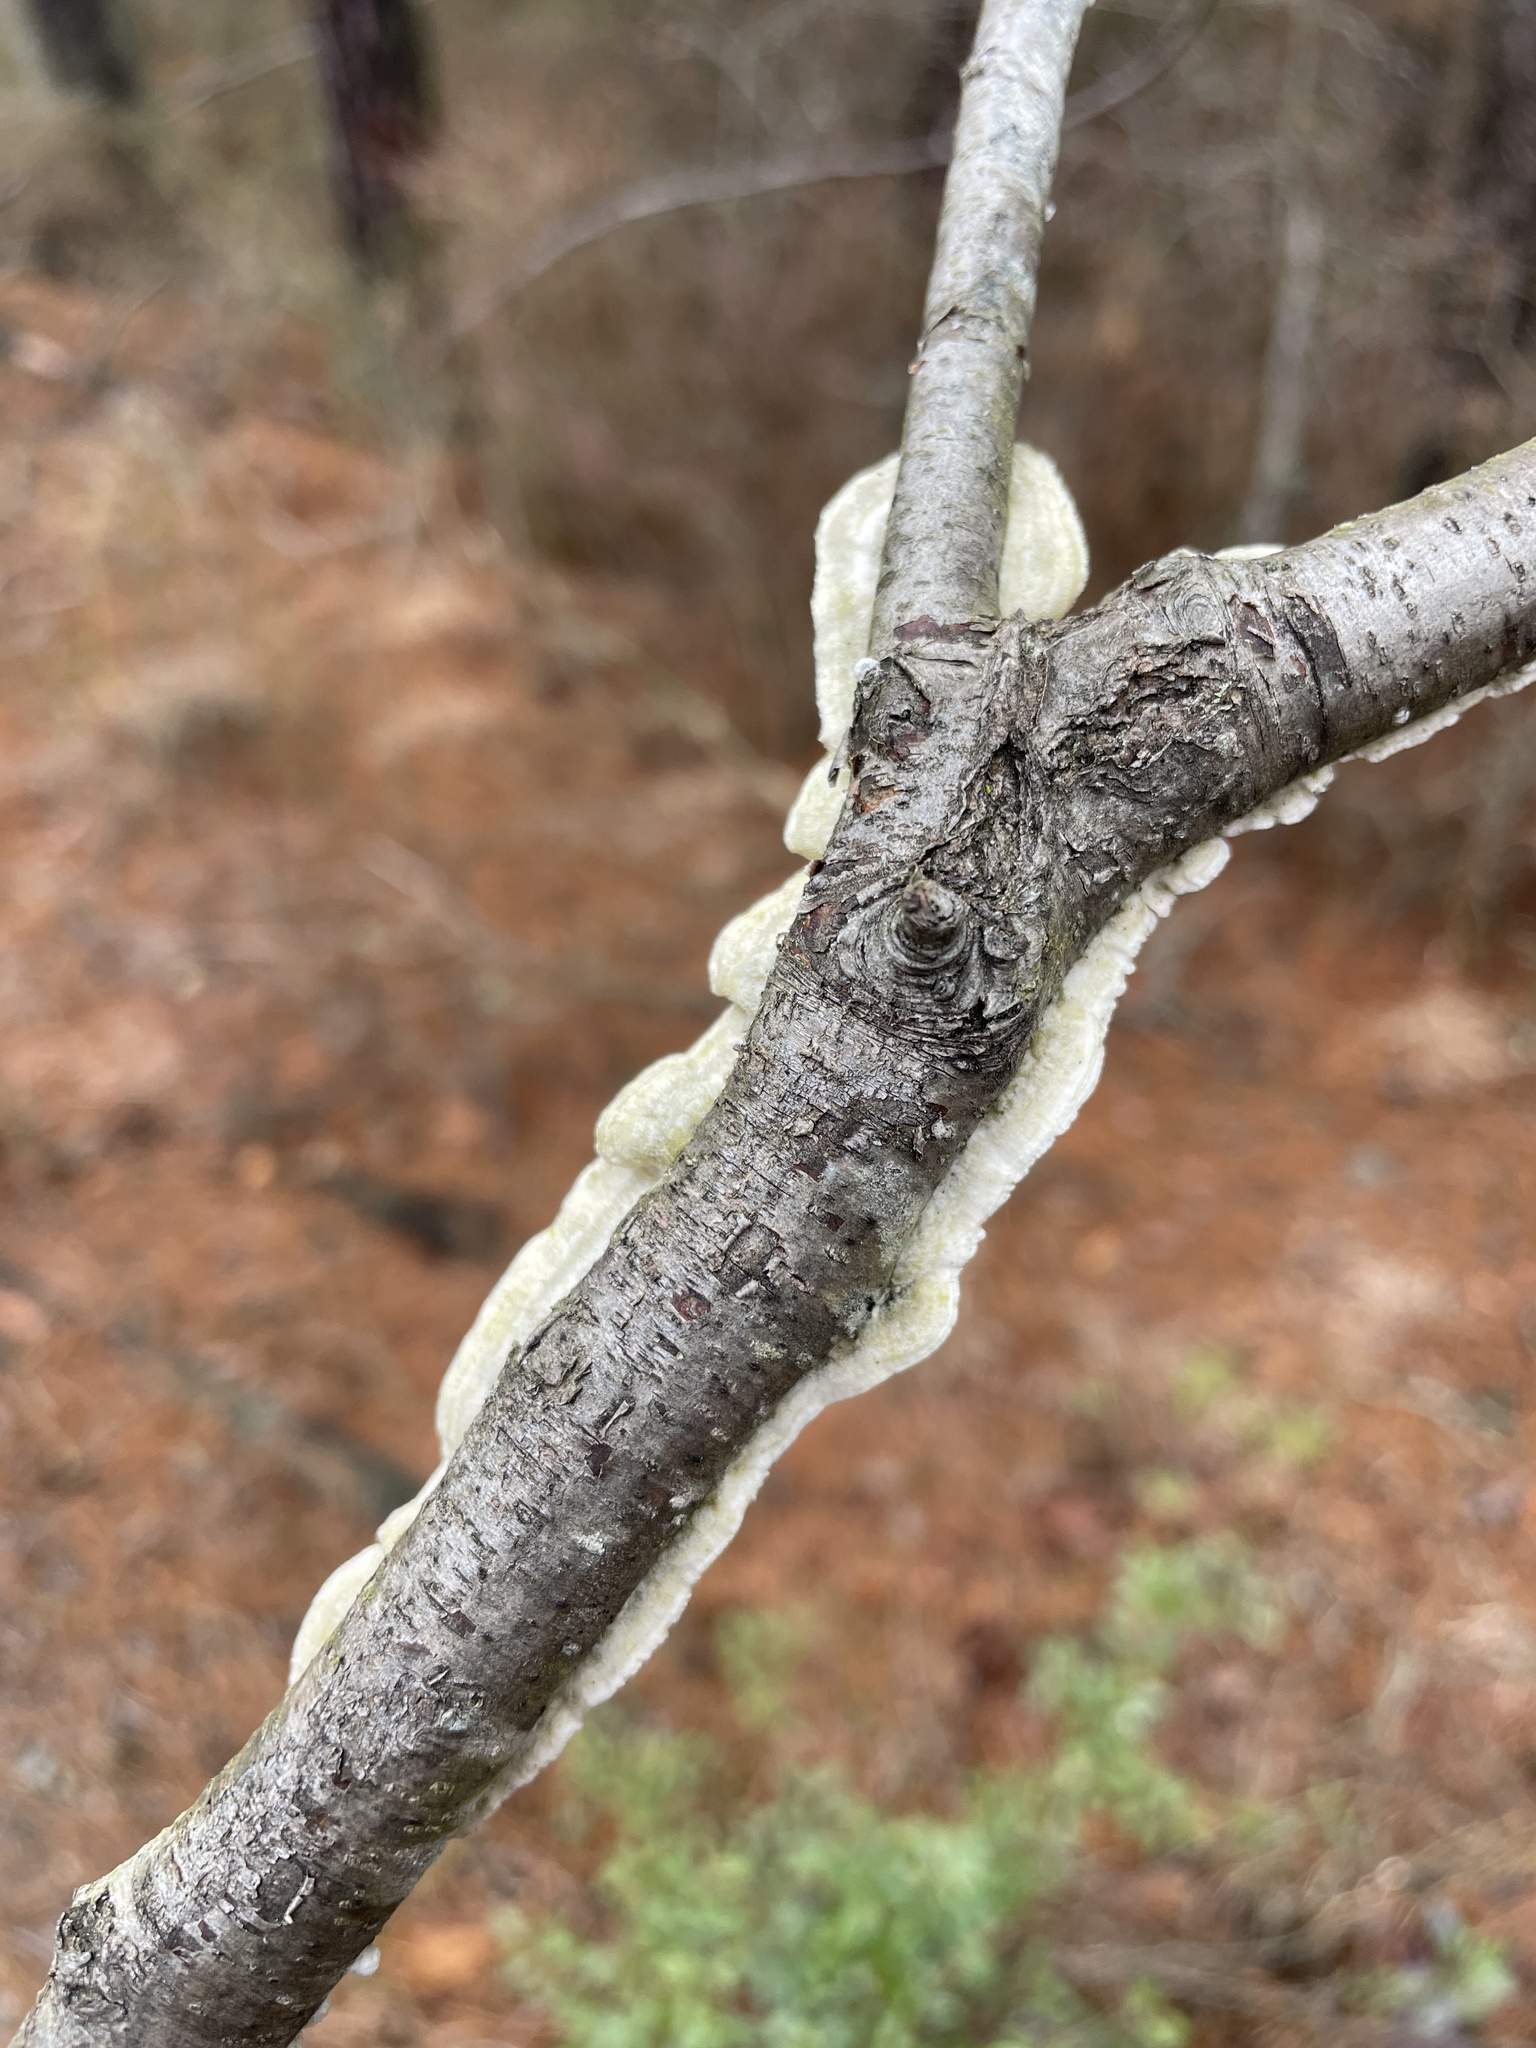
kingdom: Fungi
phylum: Basidiomycota
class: Agaricomycetes
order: Polyporales
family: Irpicaceae
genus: Irpex
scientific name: Irpex lacteus
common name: Milk-white toothed polypore
